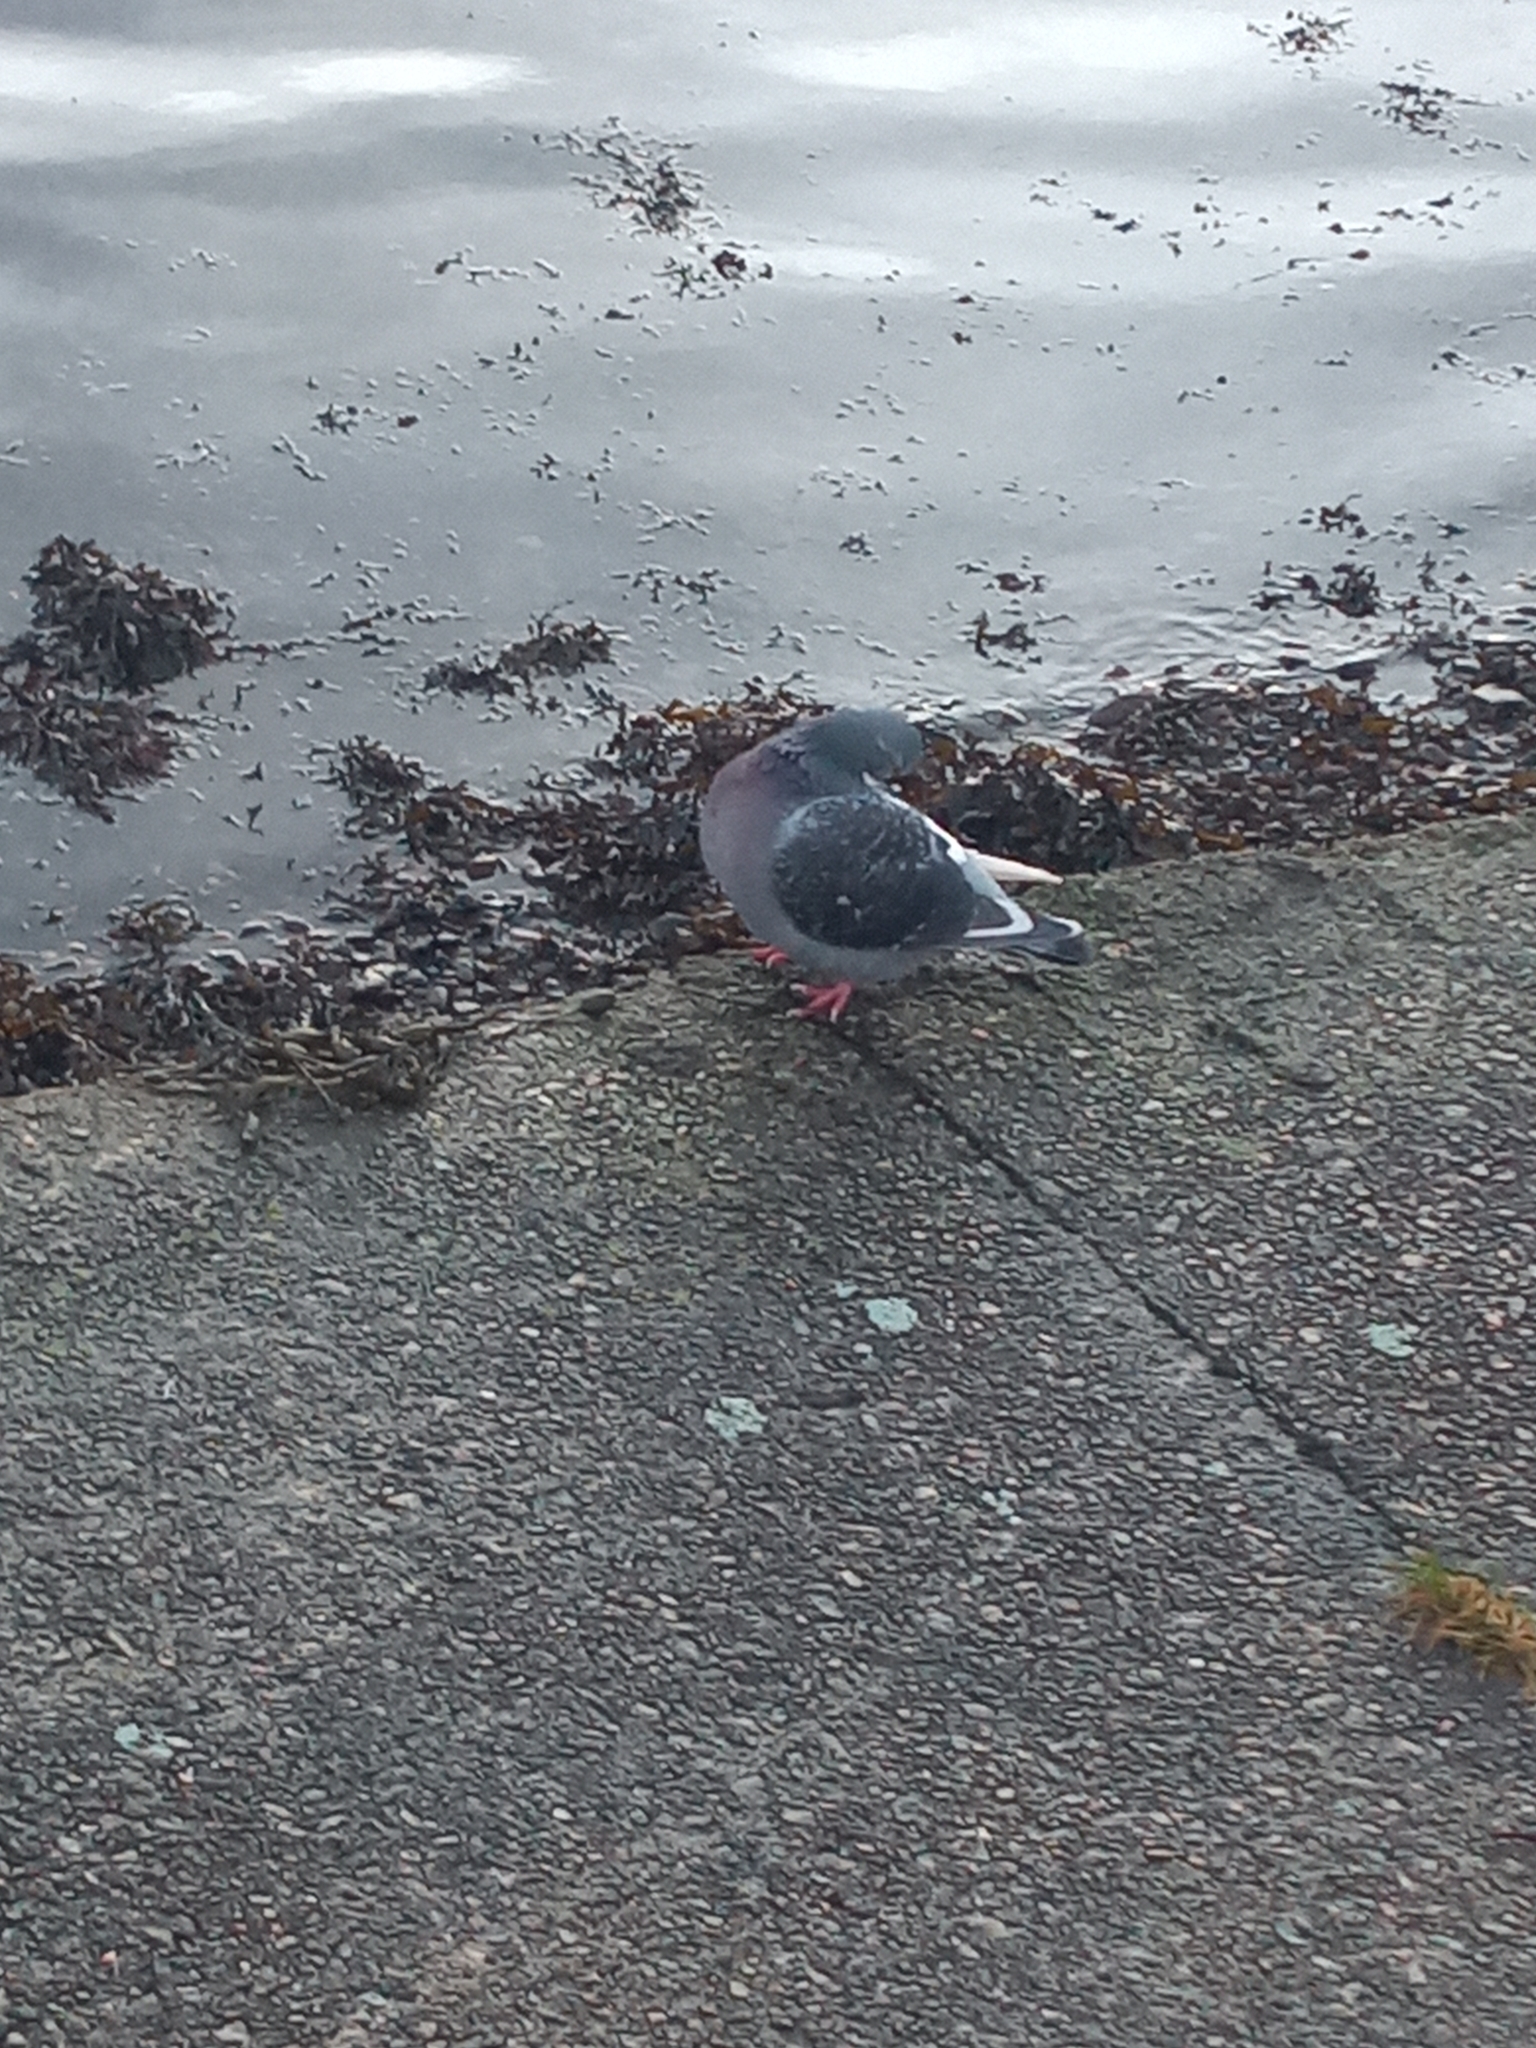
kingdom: Animalia
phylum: Chordata
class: Aves
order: Columbiformes
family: Columbidae
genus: Columba
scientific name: Columba livia
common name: Rock pigeon
